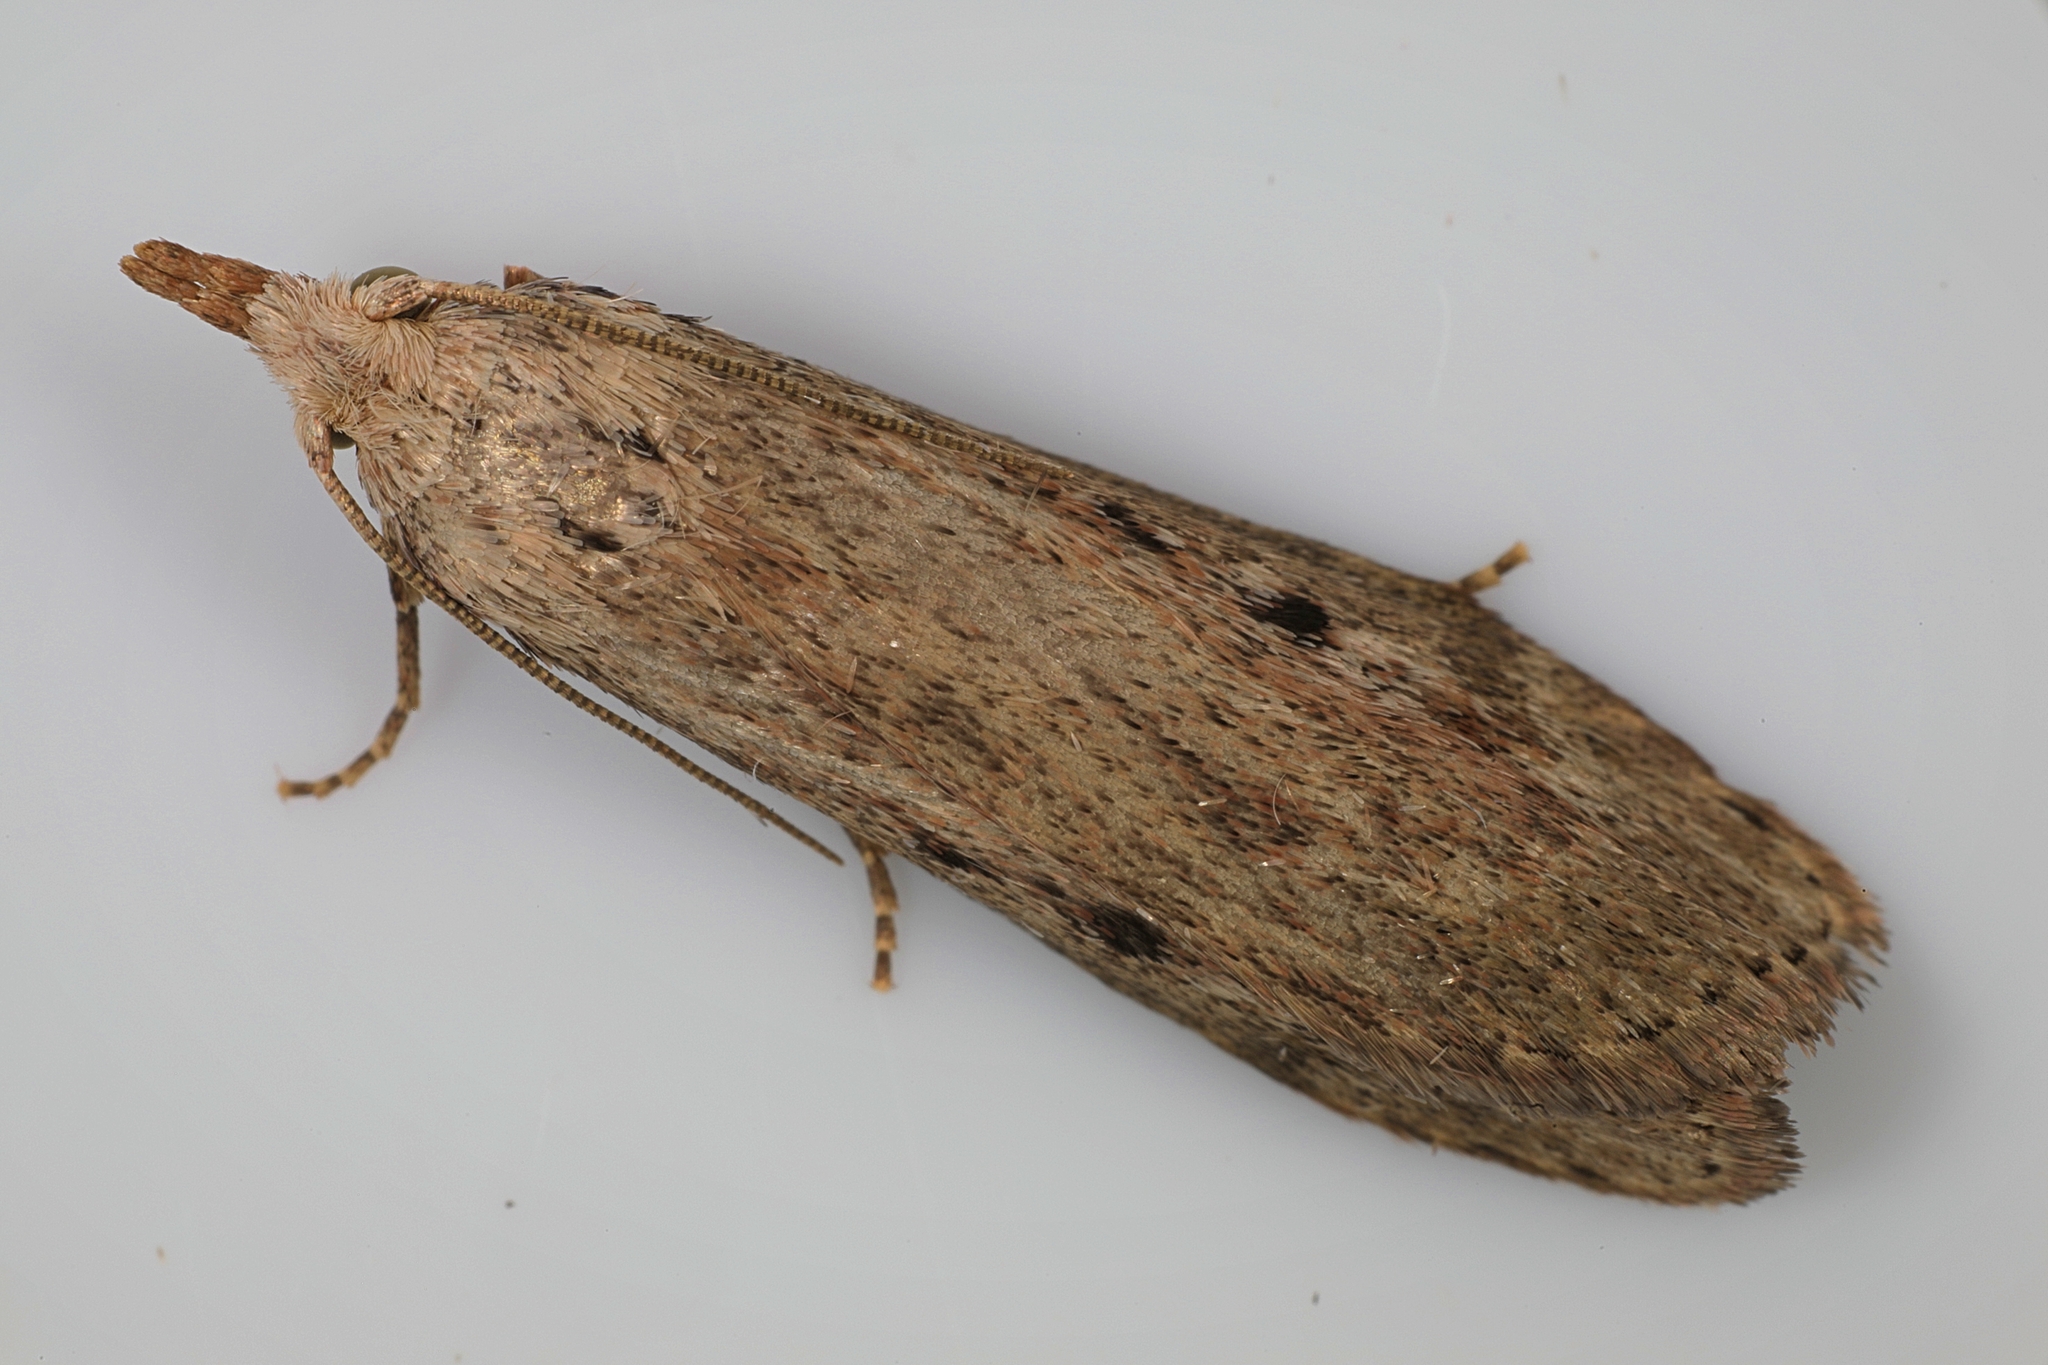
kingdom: Animalia
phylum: Arthropoda
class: Insecta
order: Lepidoptera
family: Pyralidae
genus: Aphomia
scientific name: Aphomia sociella
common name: Bee moth
